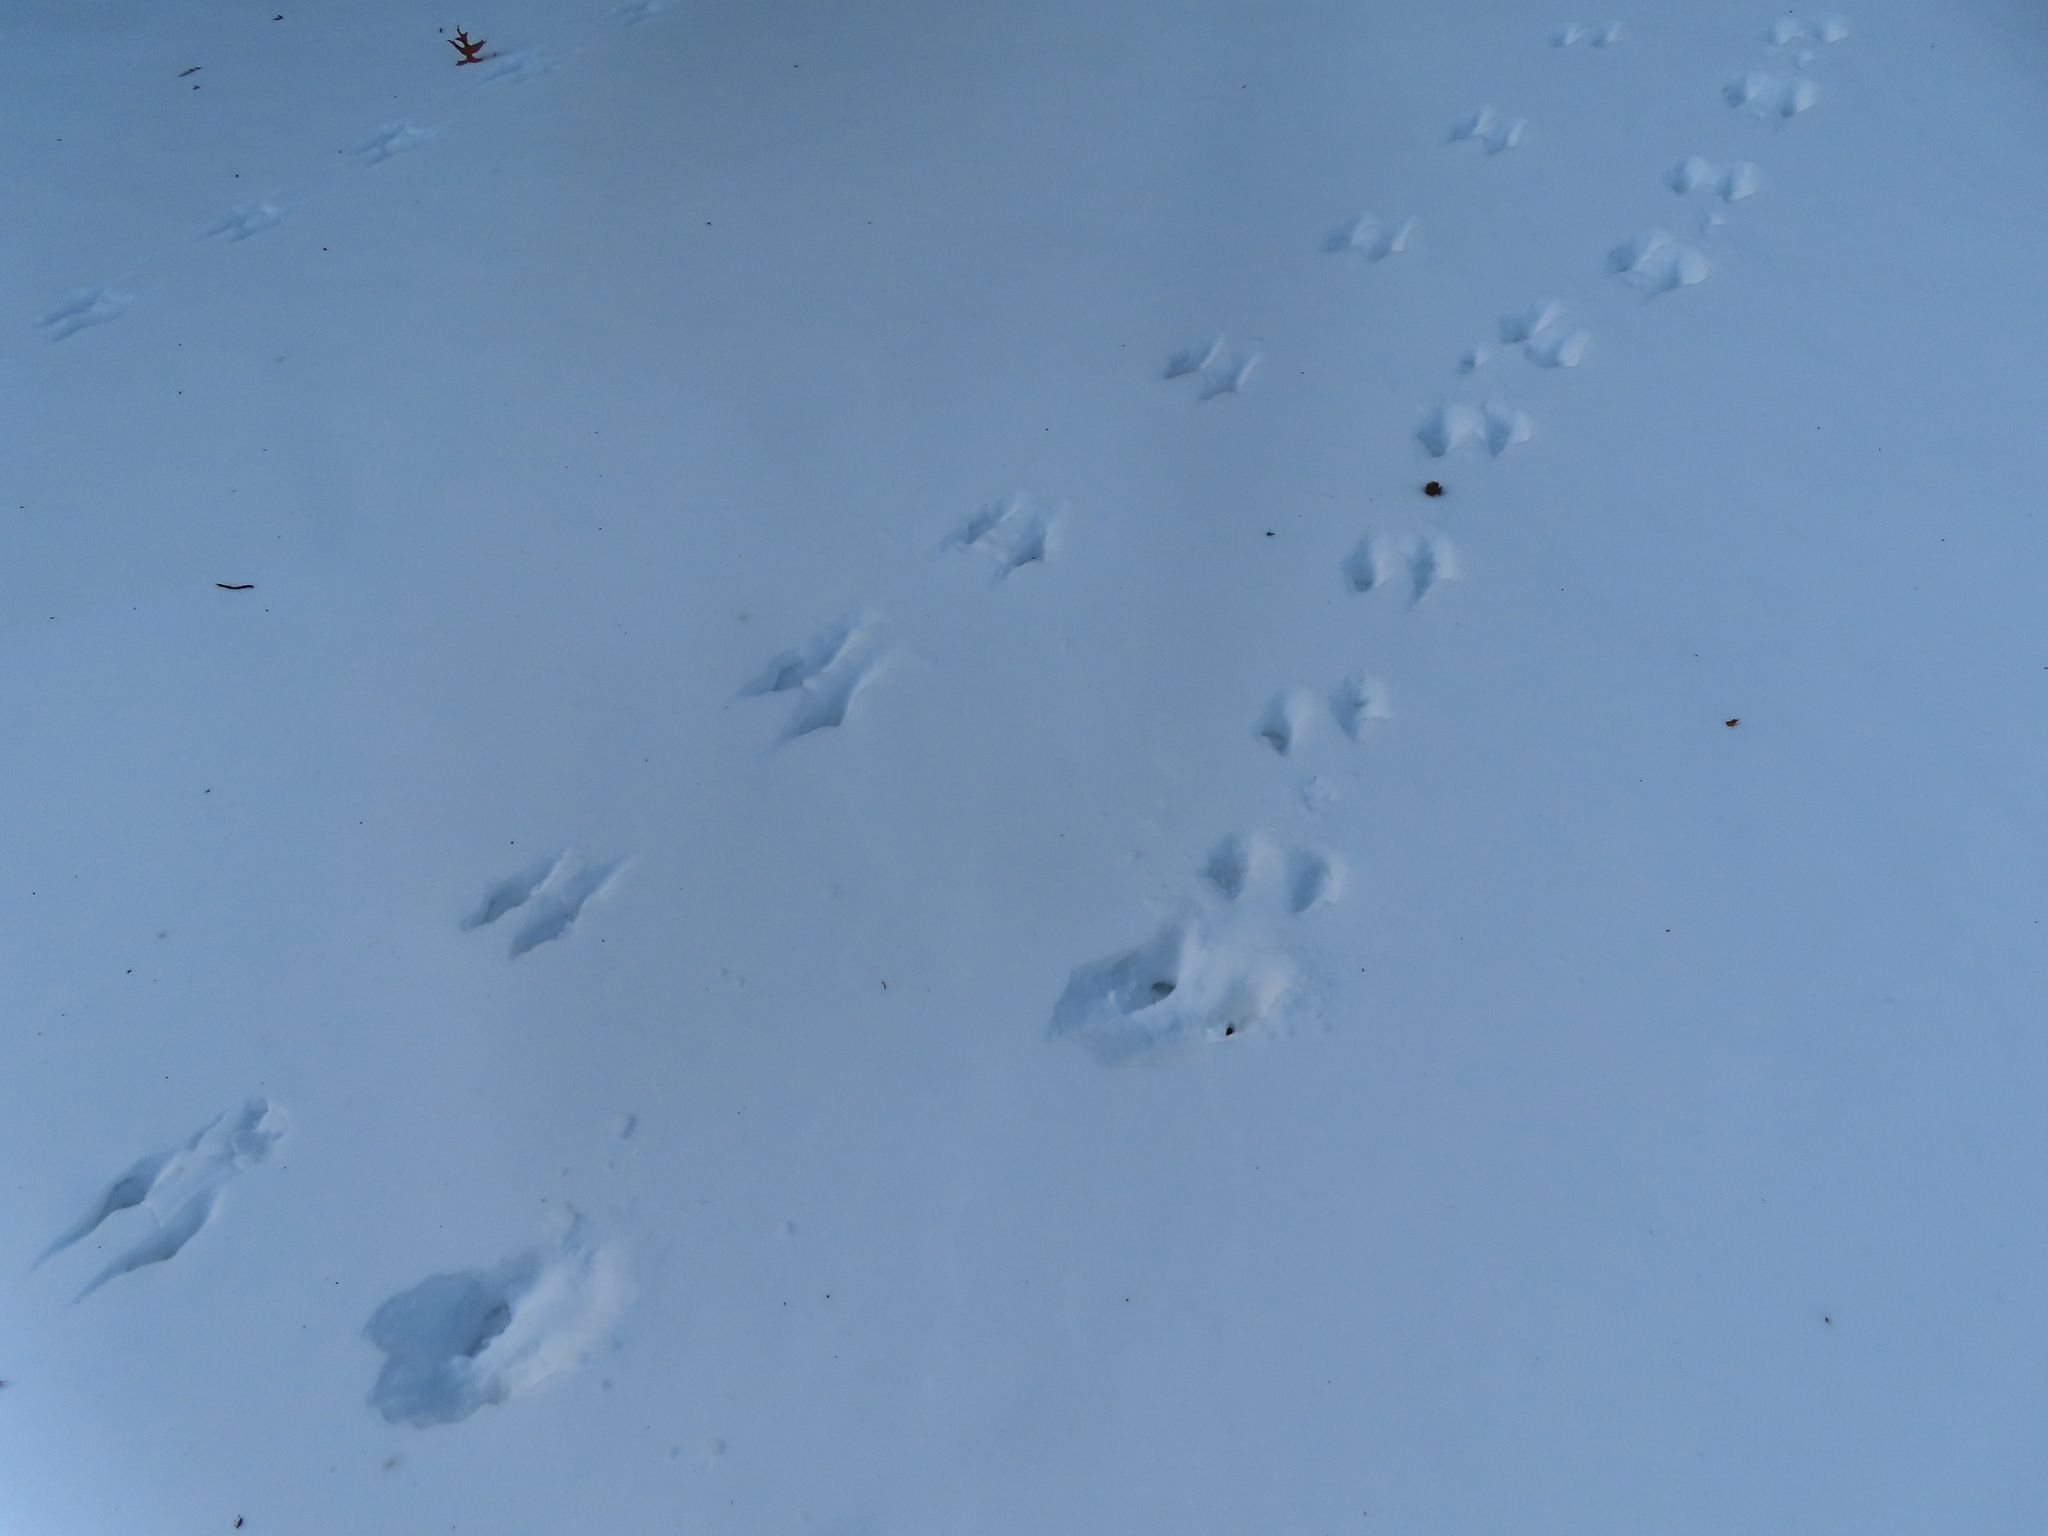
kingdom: Animalia
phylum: Chordata
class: Mammalia
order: Rodentia
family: Sciuridae
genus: Sciurus
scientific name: Sciurus carolinensis
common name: Eastern gray squirrel
